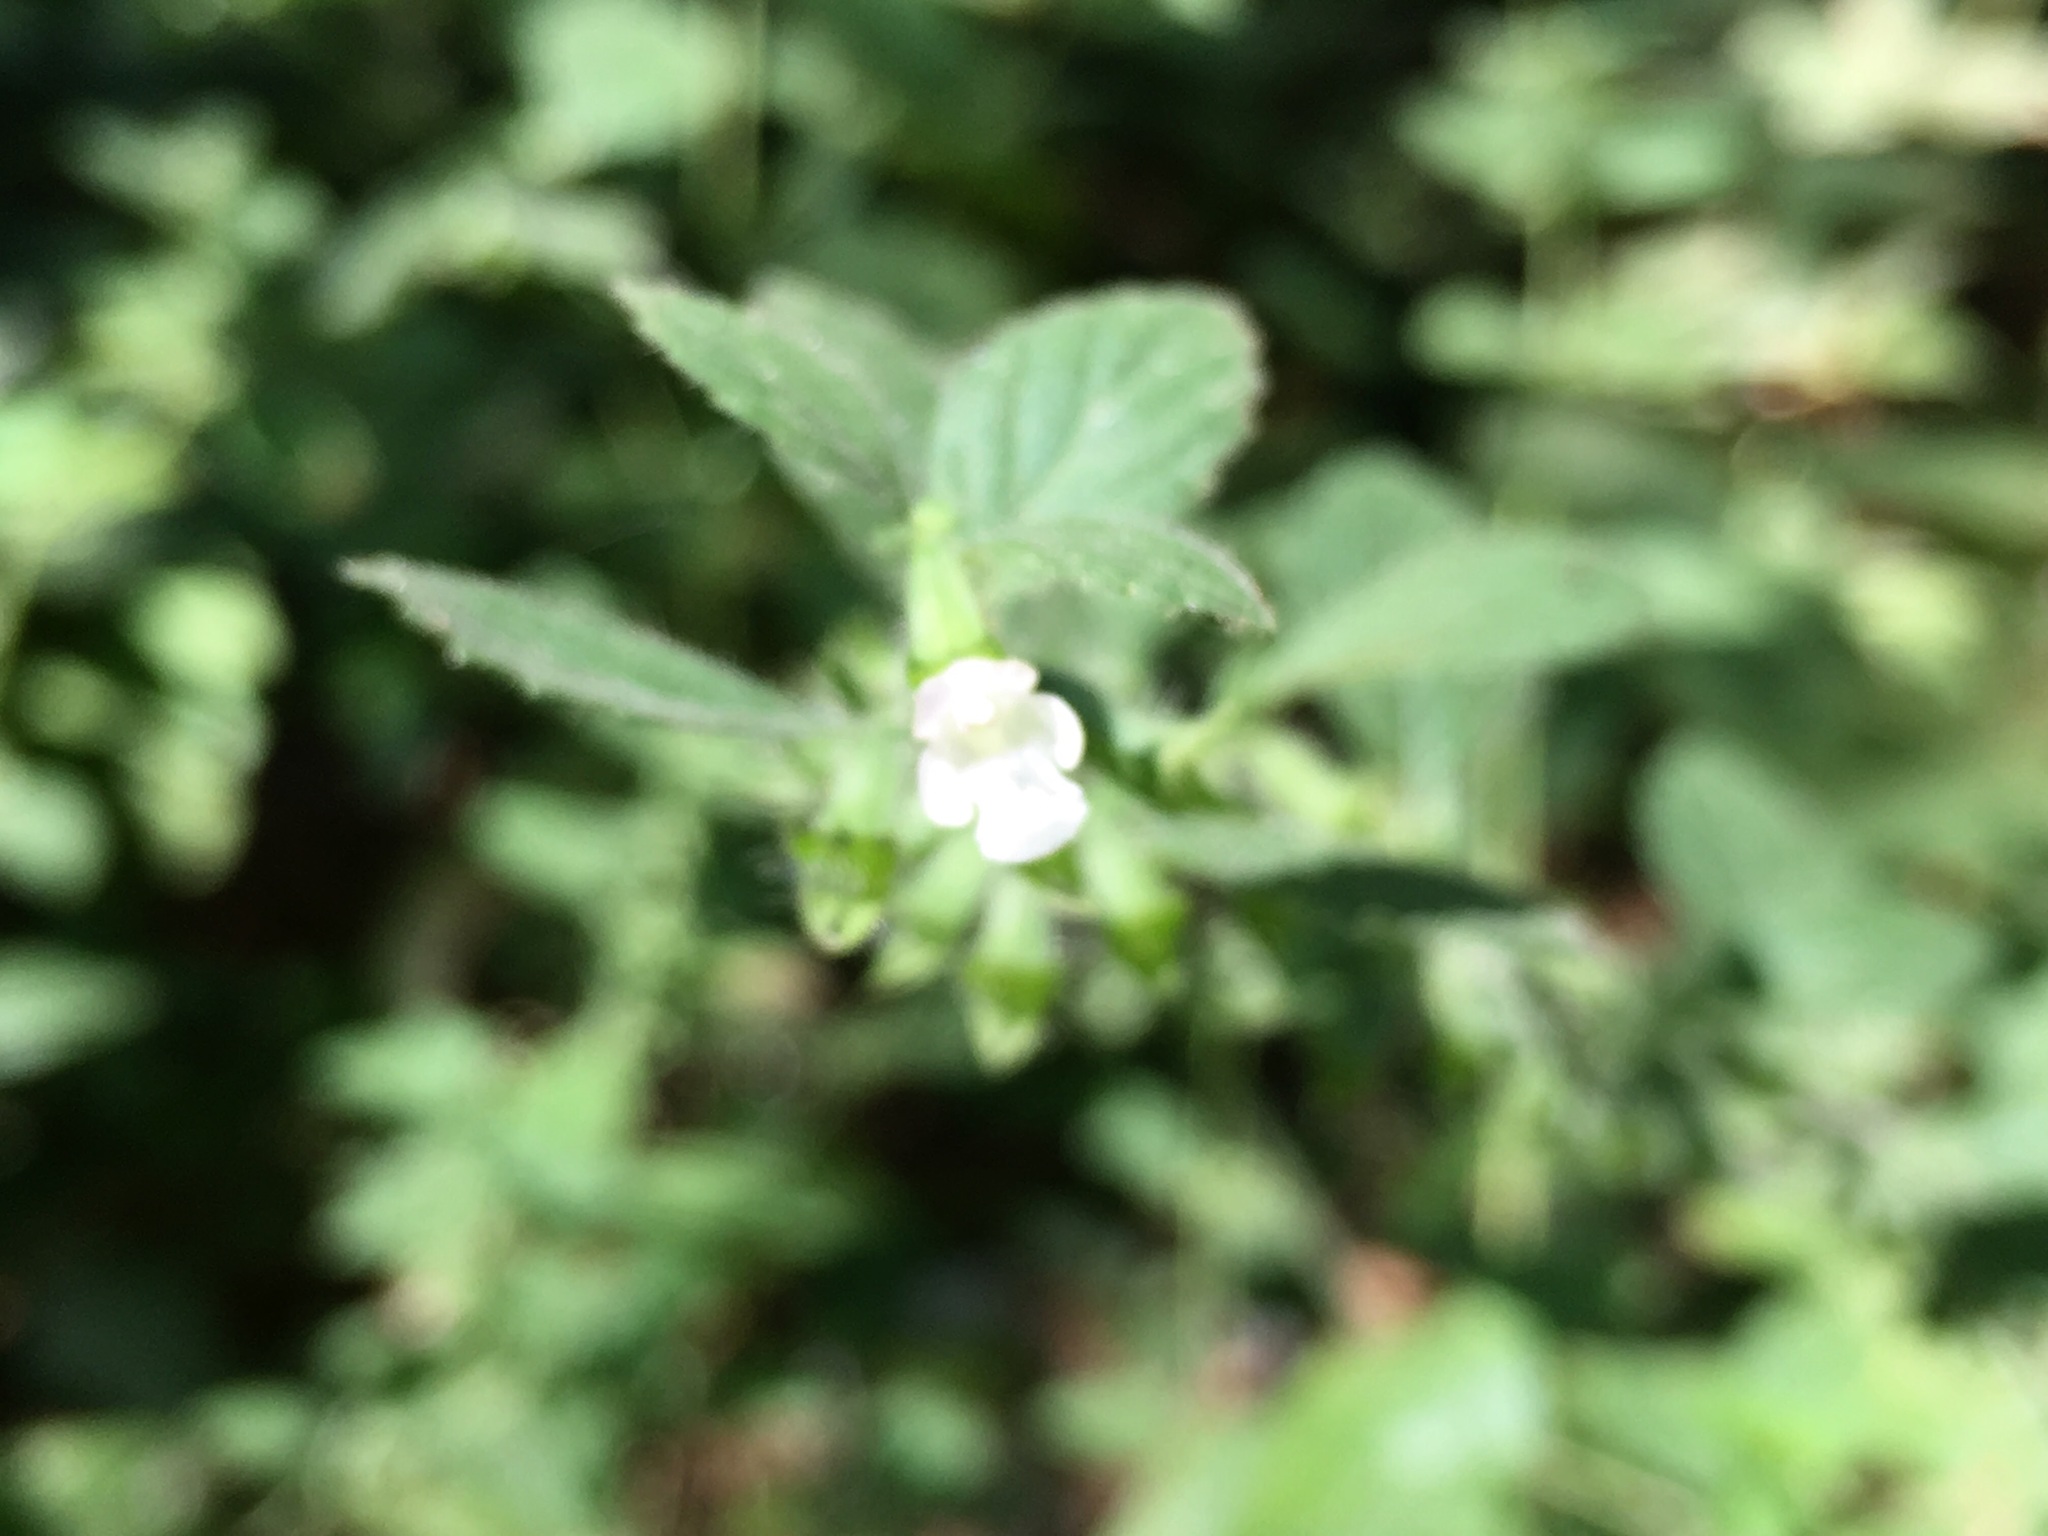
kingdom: Plantae
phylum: Tracheophyta
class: Magnoliopsida
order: Lamiales
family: Lamiaceae
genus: Melissa
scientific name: Melissa officinalis
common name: Balm
